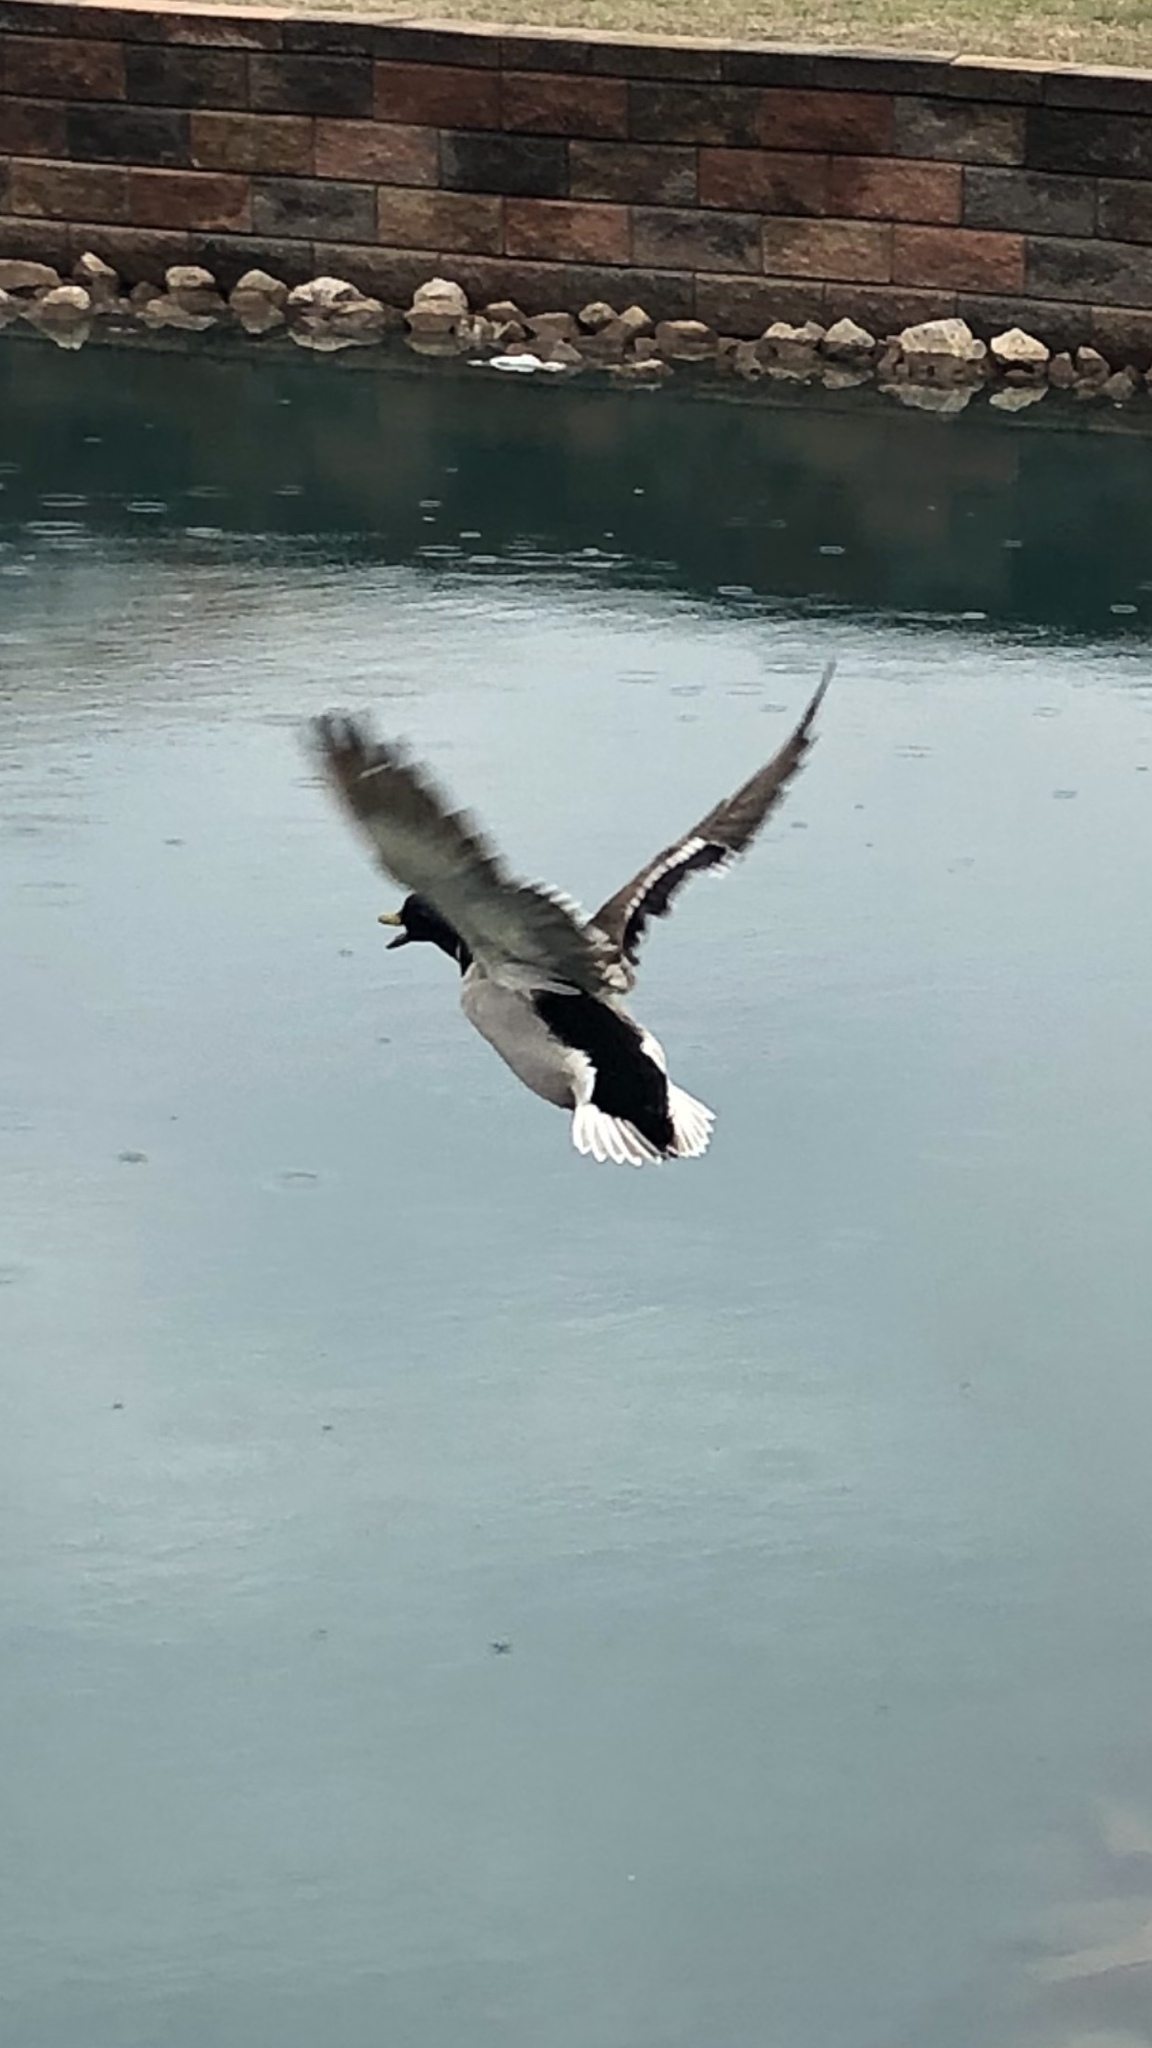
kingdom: Animalia
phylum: Chordata
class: Aves
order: Anseriformes
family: Anatidae
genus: Anas
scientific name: Anas platyrhynchos
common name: Mallard
